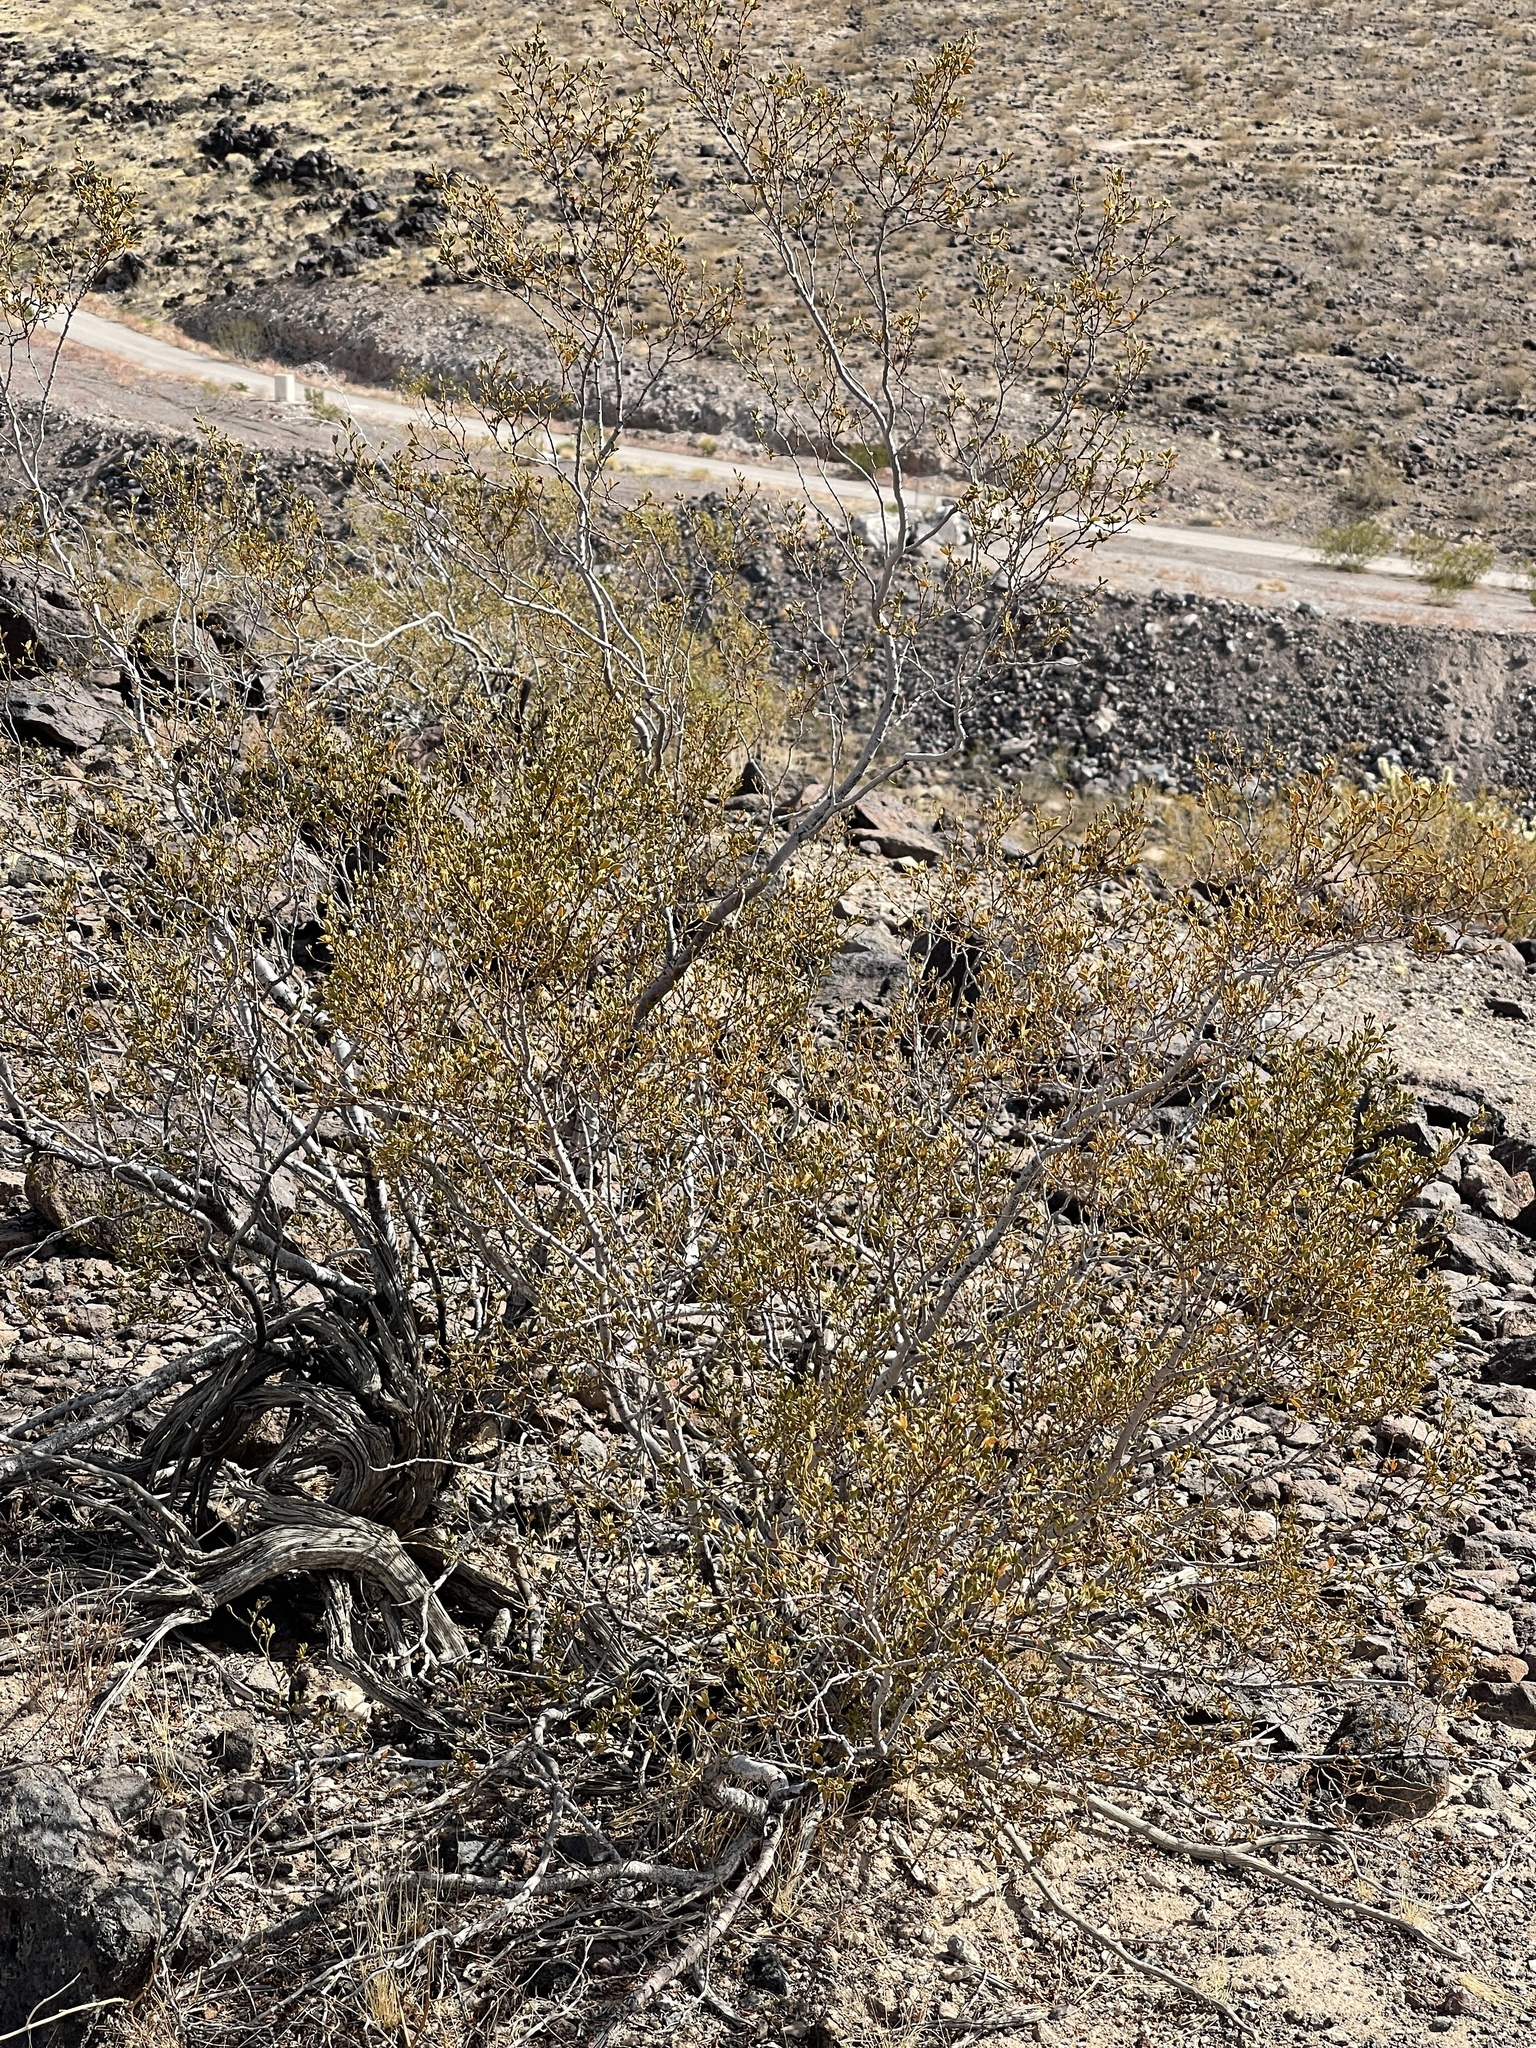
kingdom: Plantae
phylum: Tracheophyta
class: Magnoliopsida
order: Zygophyllales
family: Zygophyllaceae
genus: Larrea
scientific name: Larrea tridentata
